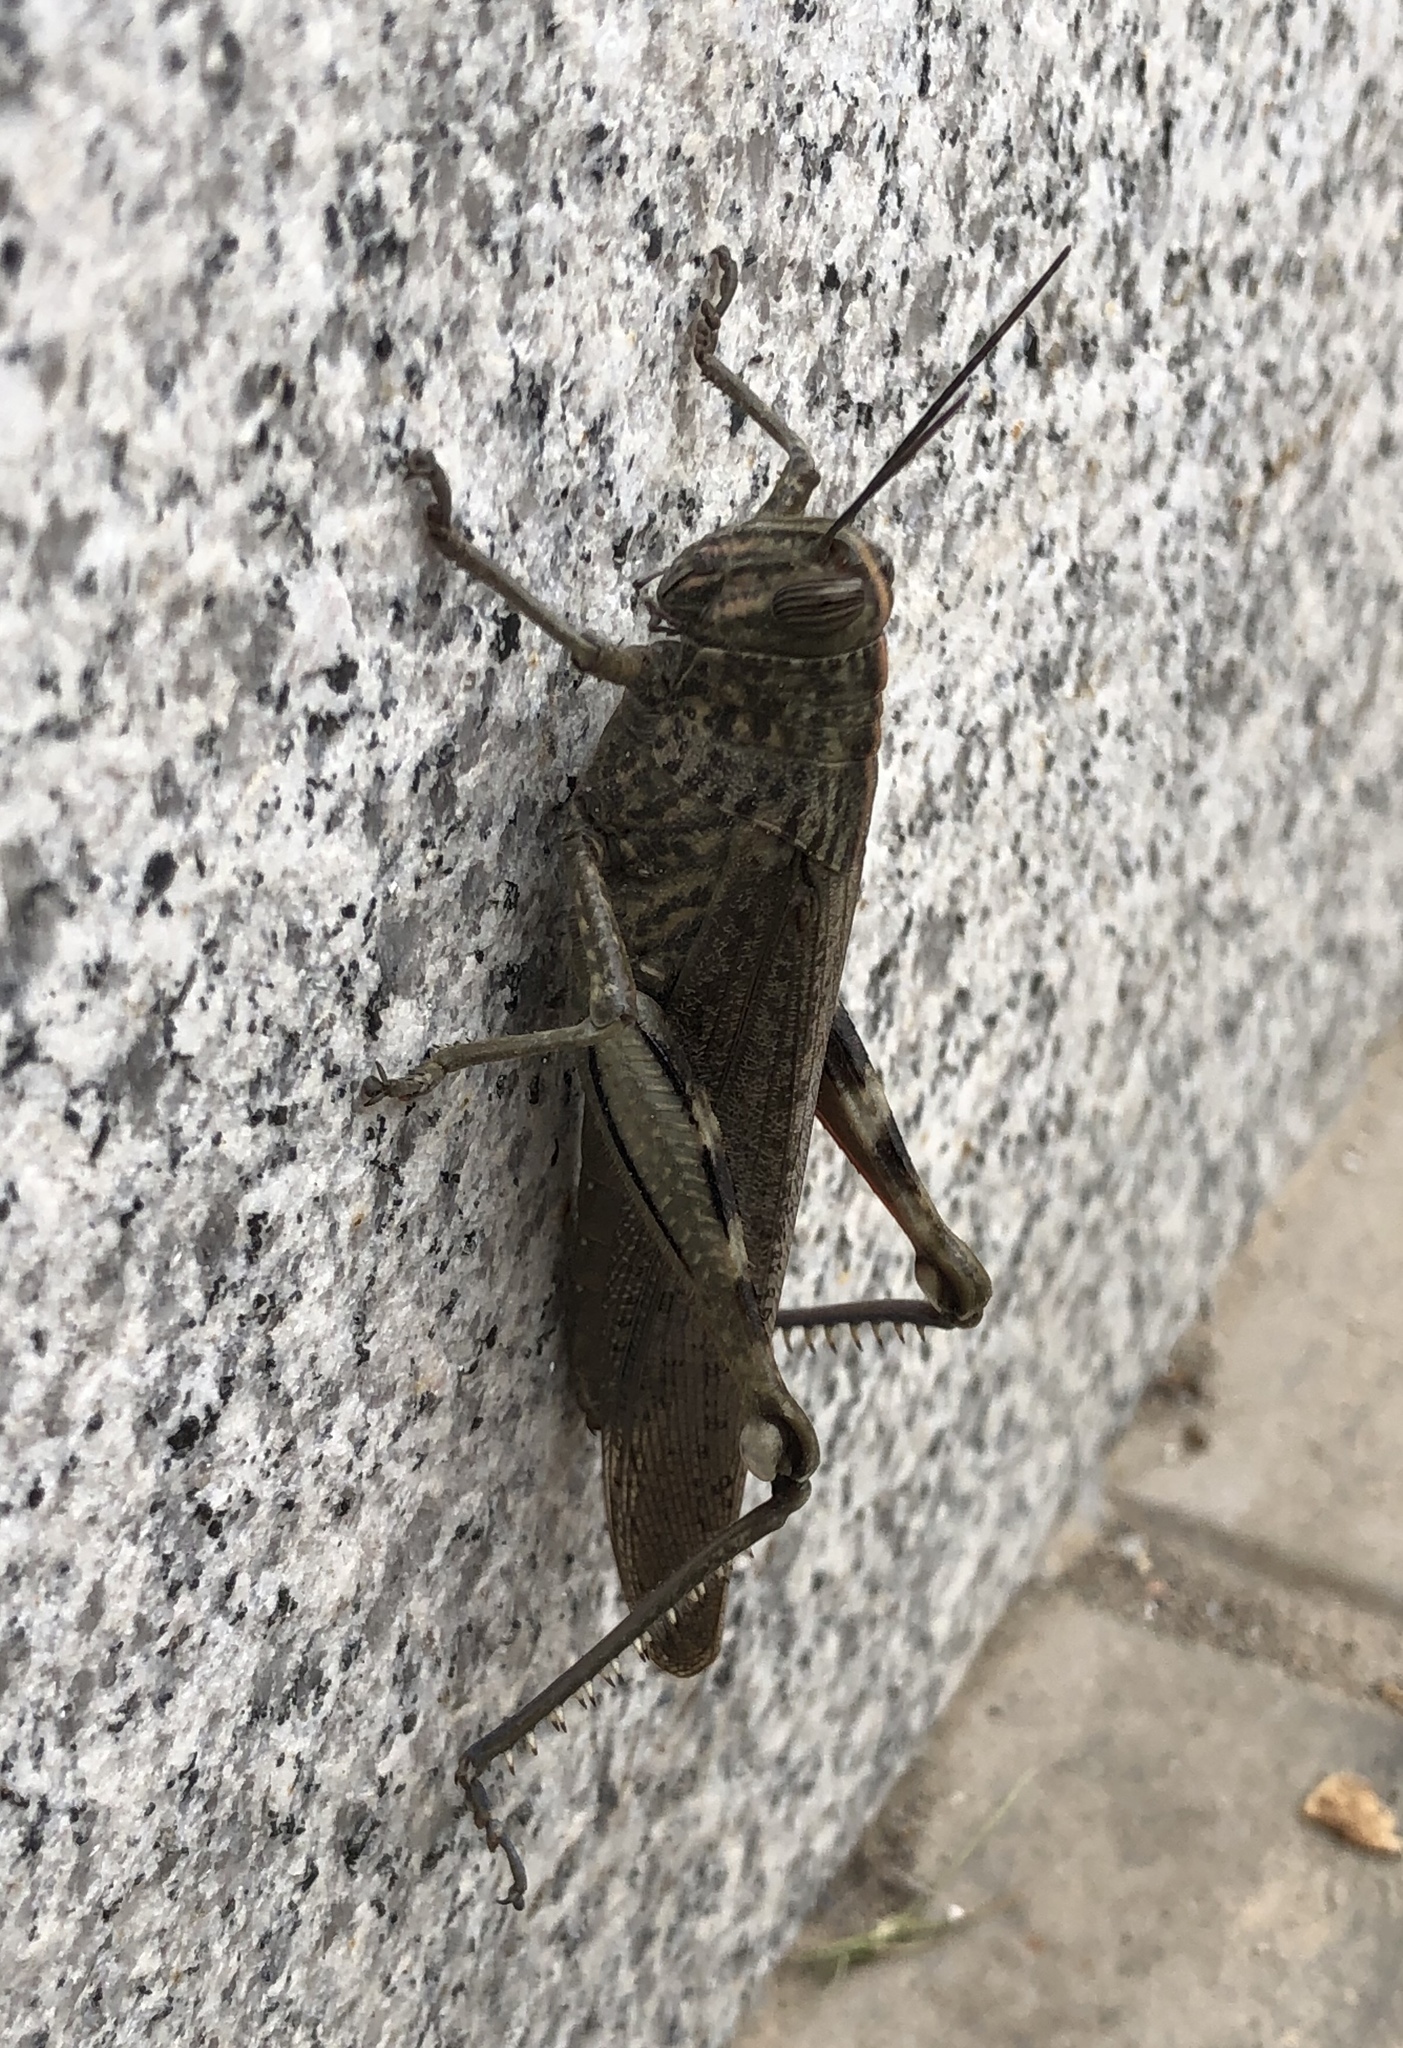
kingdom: Animalia
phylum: Arthropoda
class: Insecta
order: Orthoptera
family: Acrididae
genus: Anacridium
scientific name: Anacridium aegyptium
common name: Egyptian grasshopper
